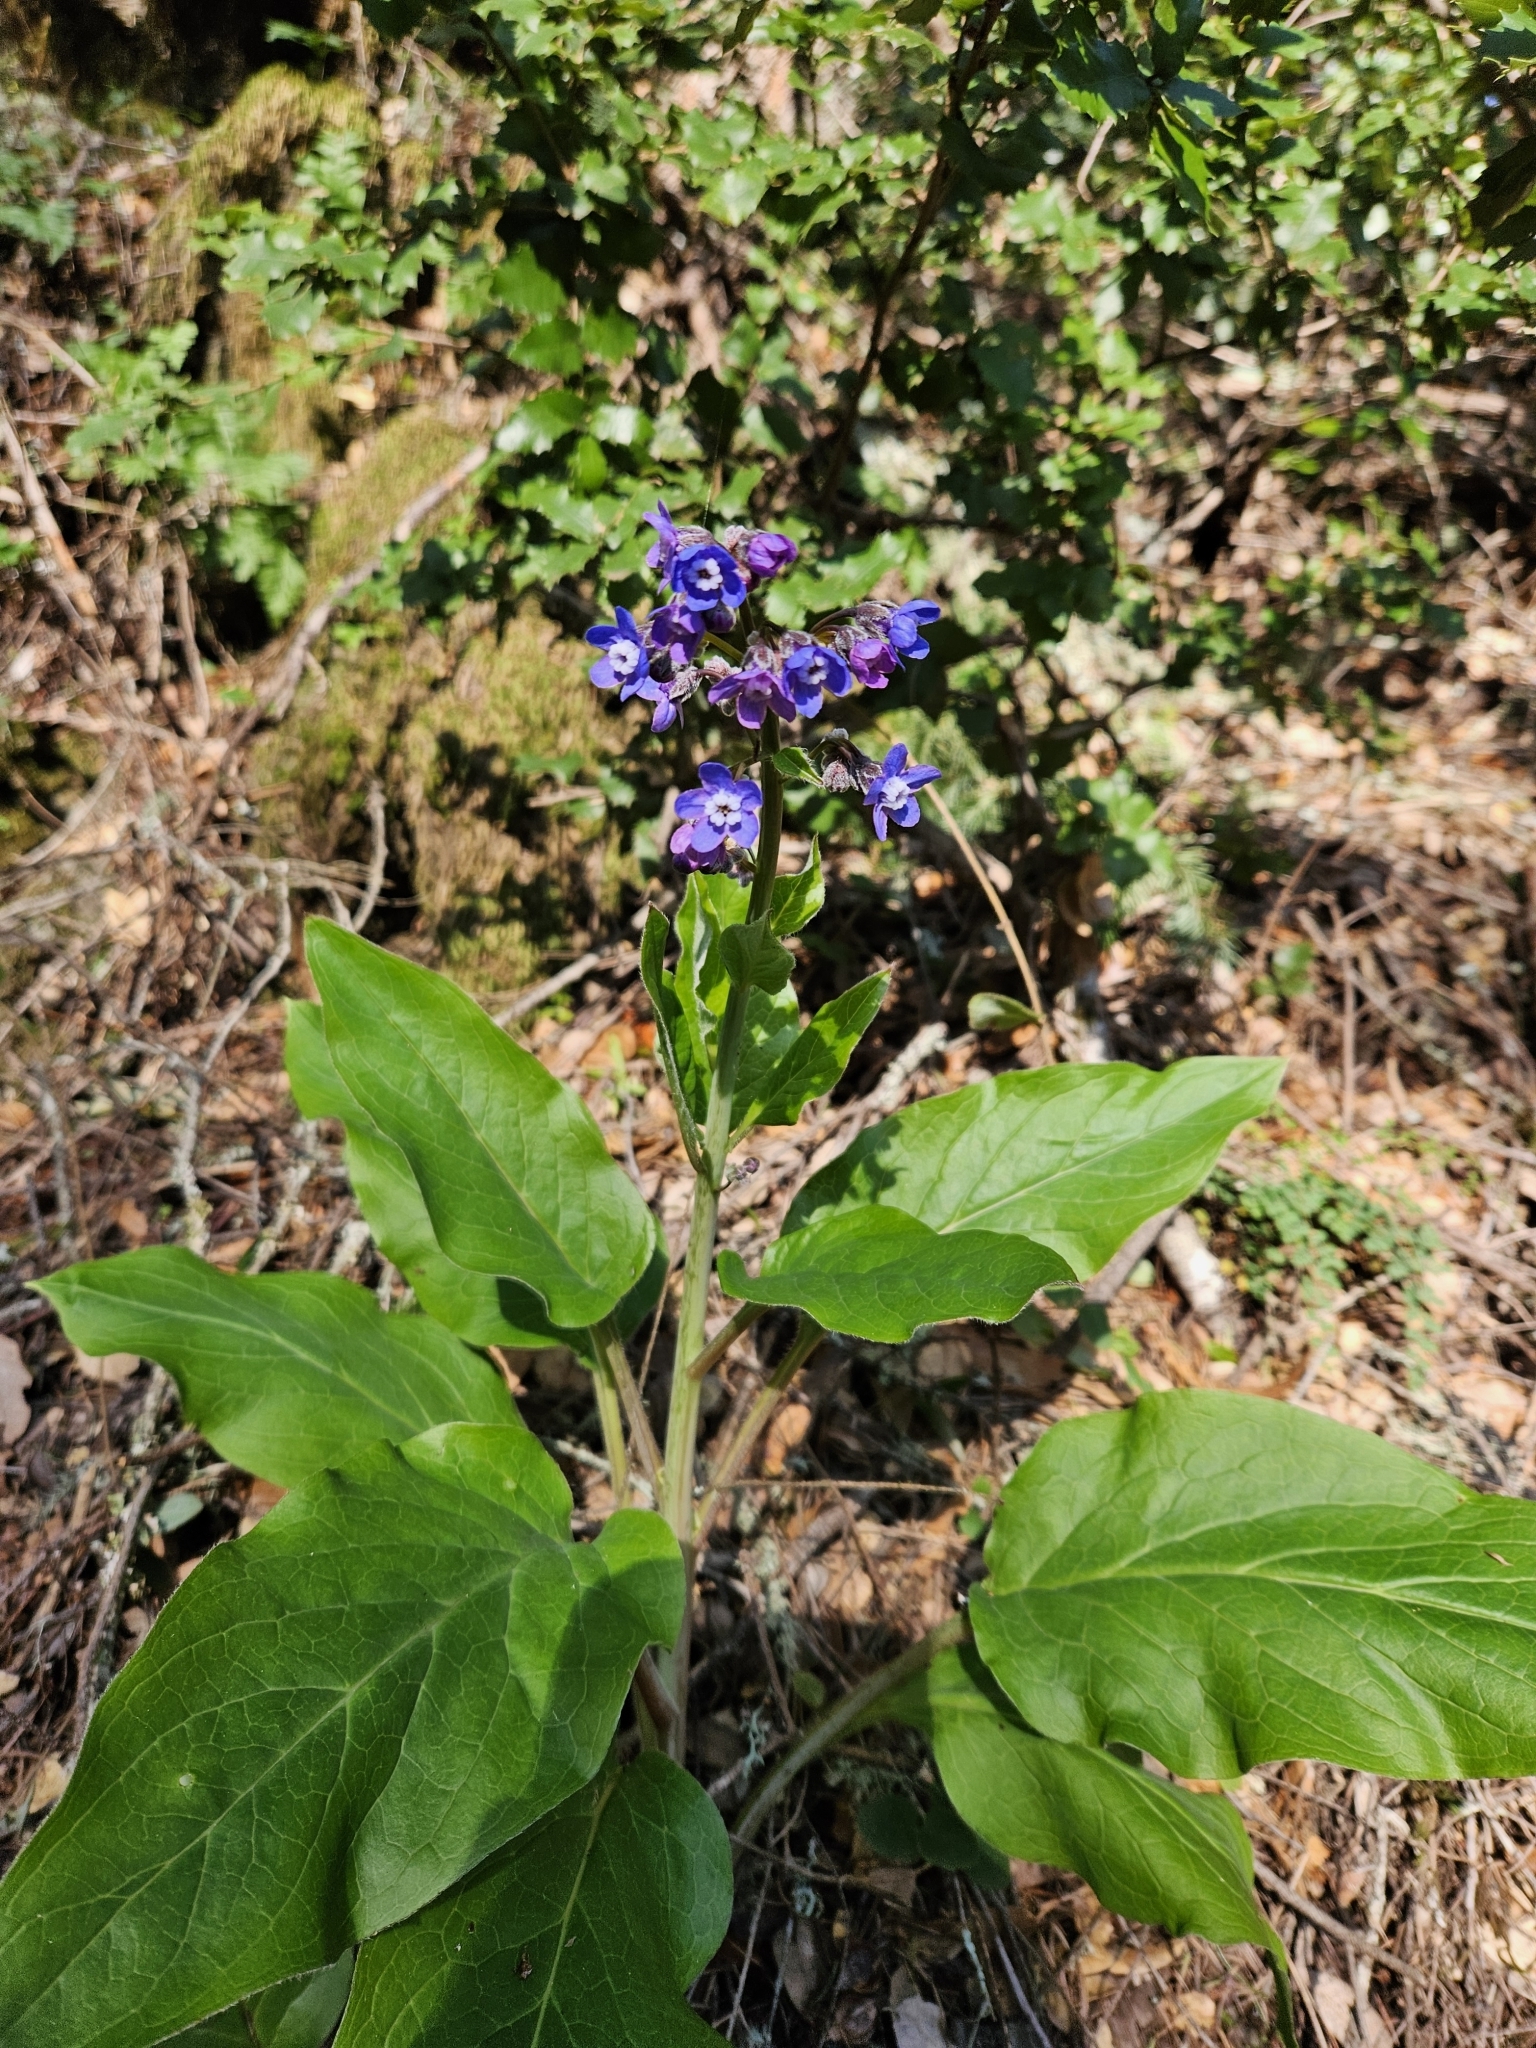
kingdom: Plantae
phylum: Tracheophyta
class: Magnoliopsida
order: Boraginales
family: Boraginaceae
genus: Adelinia
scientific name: Adelinia grande
